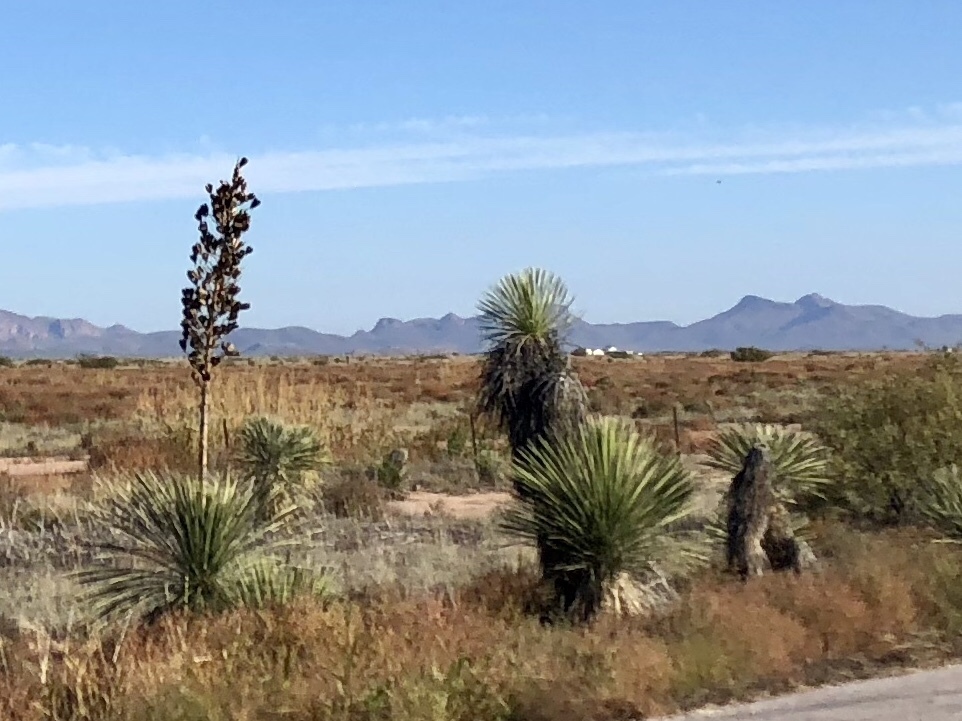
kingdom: Plantae
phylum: Tracheophyta
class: Liliopsida
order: Asparagales
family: Asparagaceae
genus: Yucca
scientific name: Yucca elata
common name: Palmella
